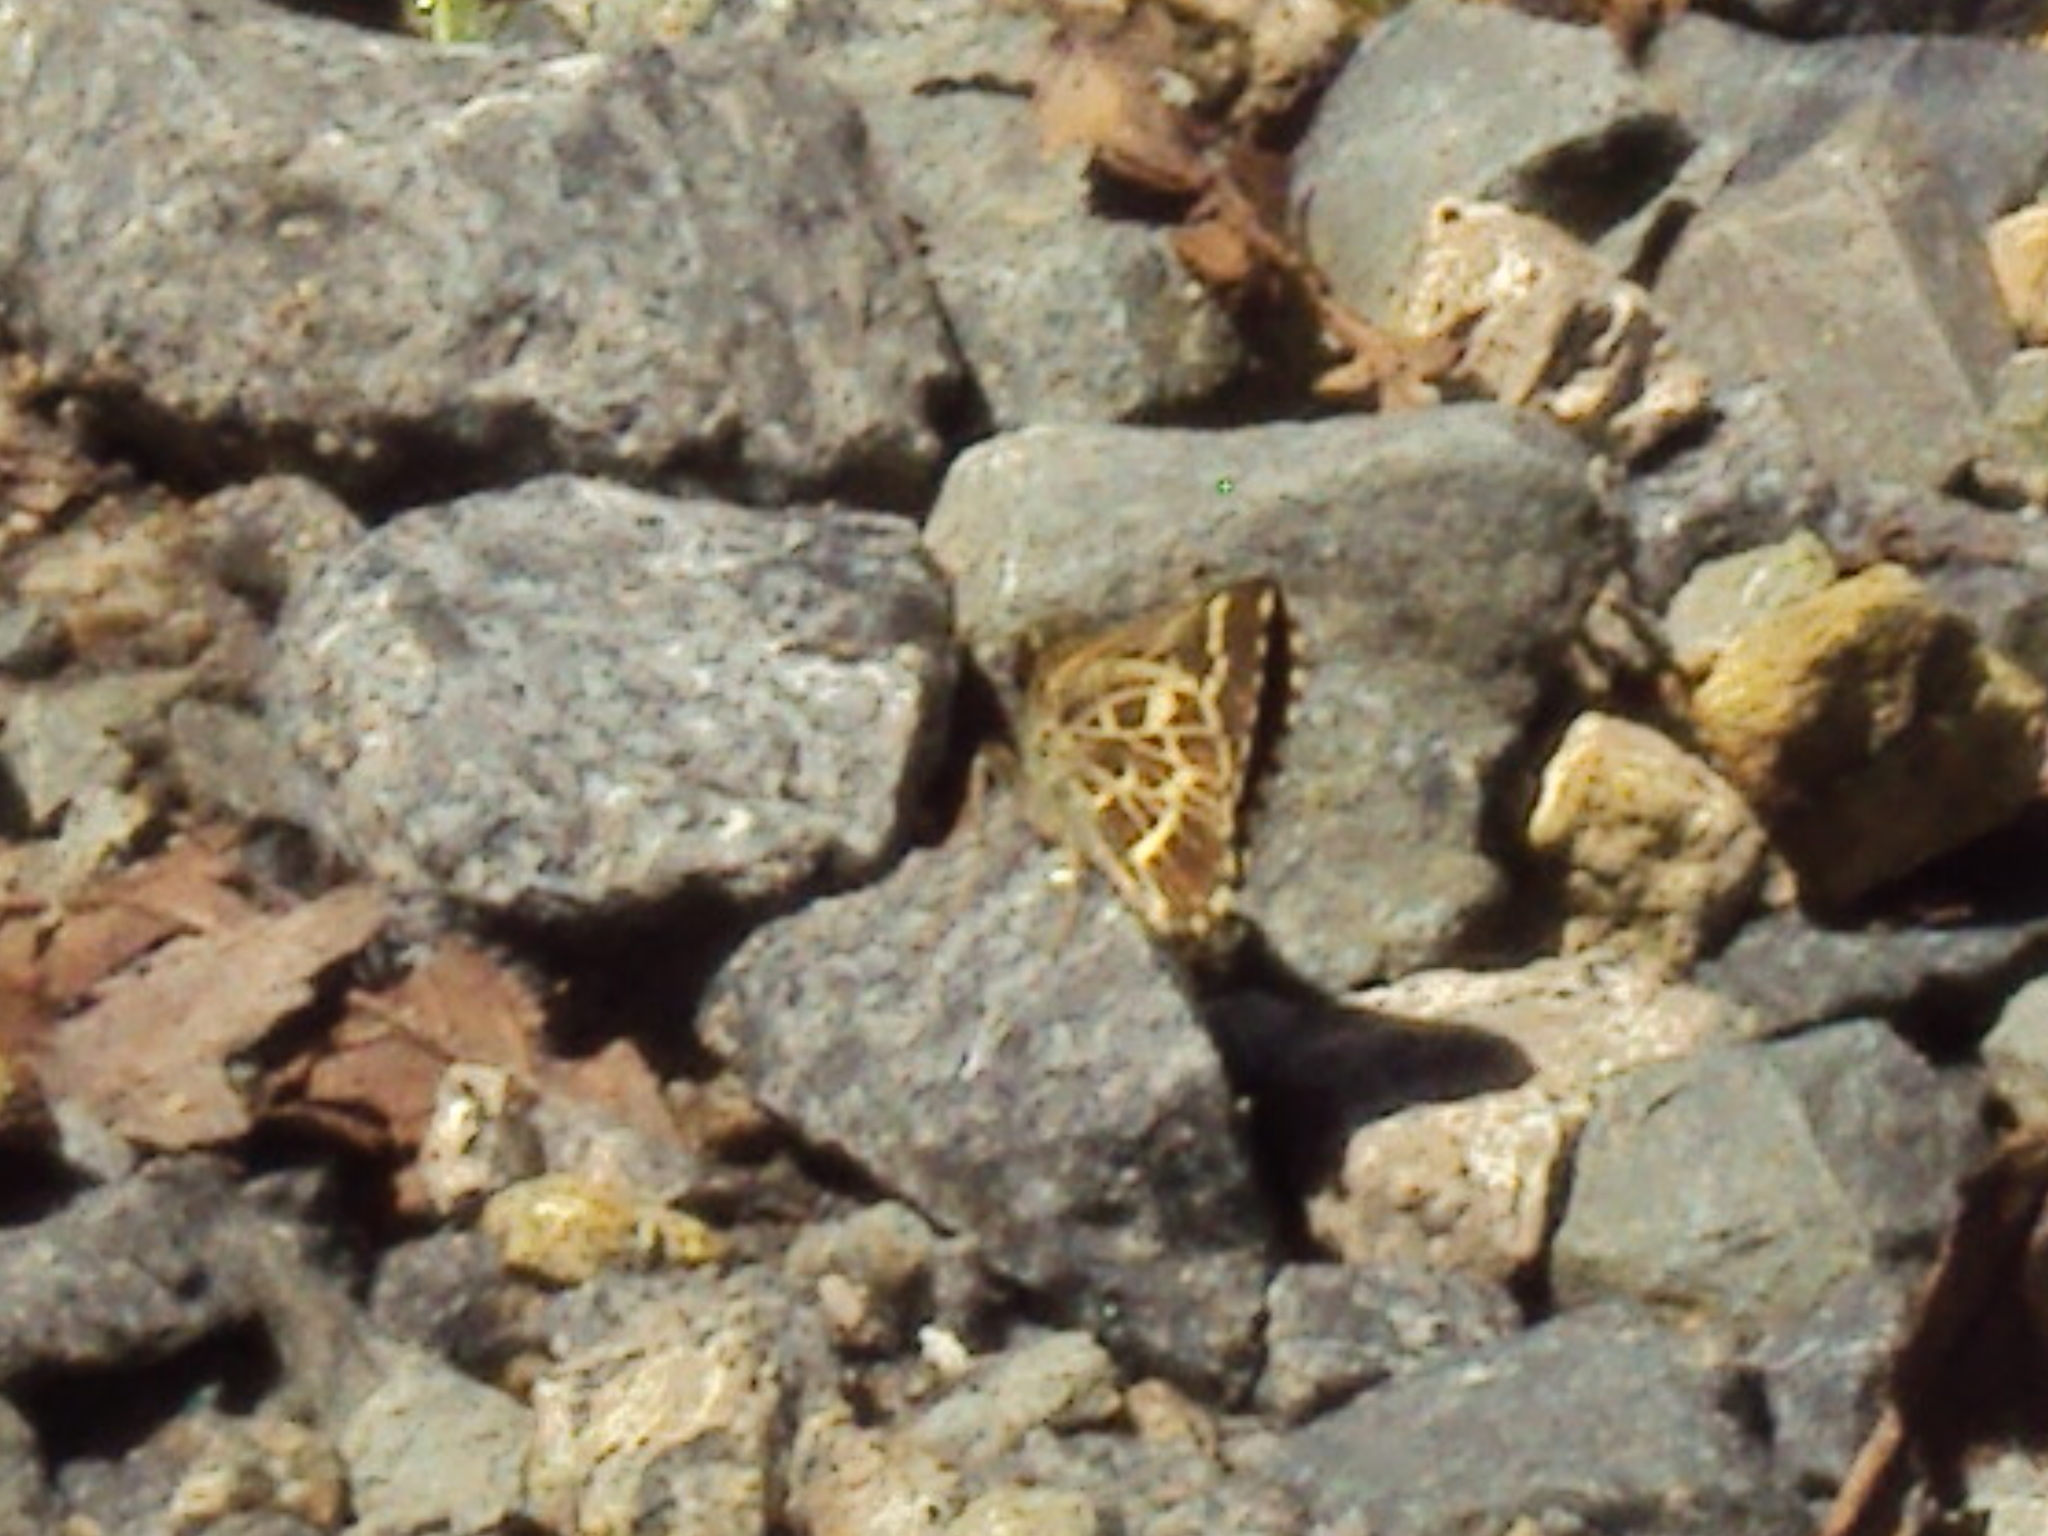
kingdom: Animalia
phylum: Arthropoda
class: Insecta
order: Lepidoptera
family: Hesperiidae
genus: Mastor
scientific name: Mastor aesculapius
